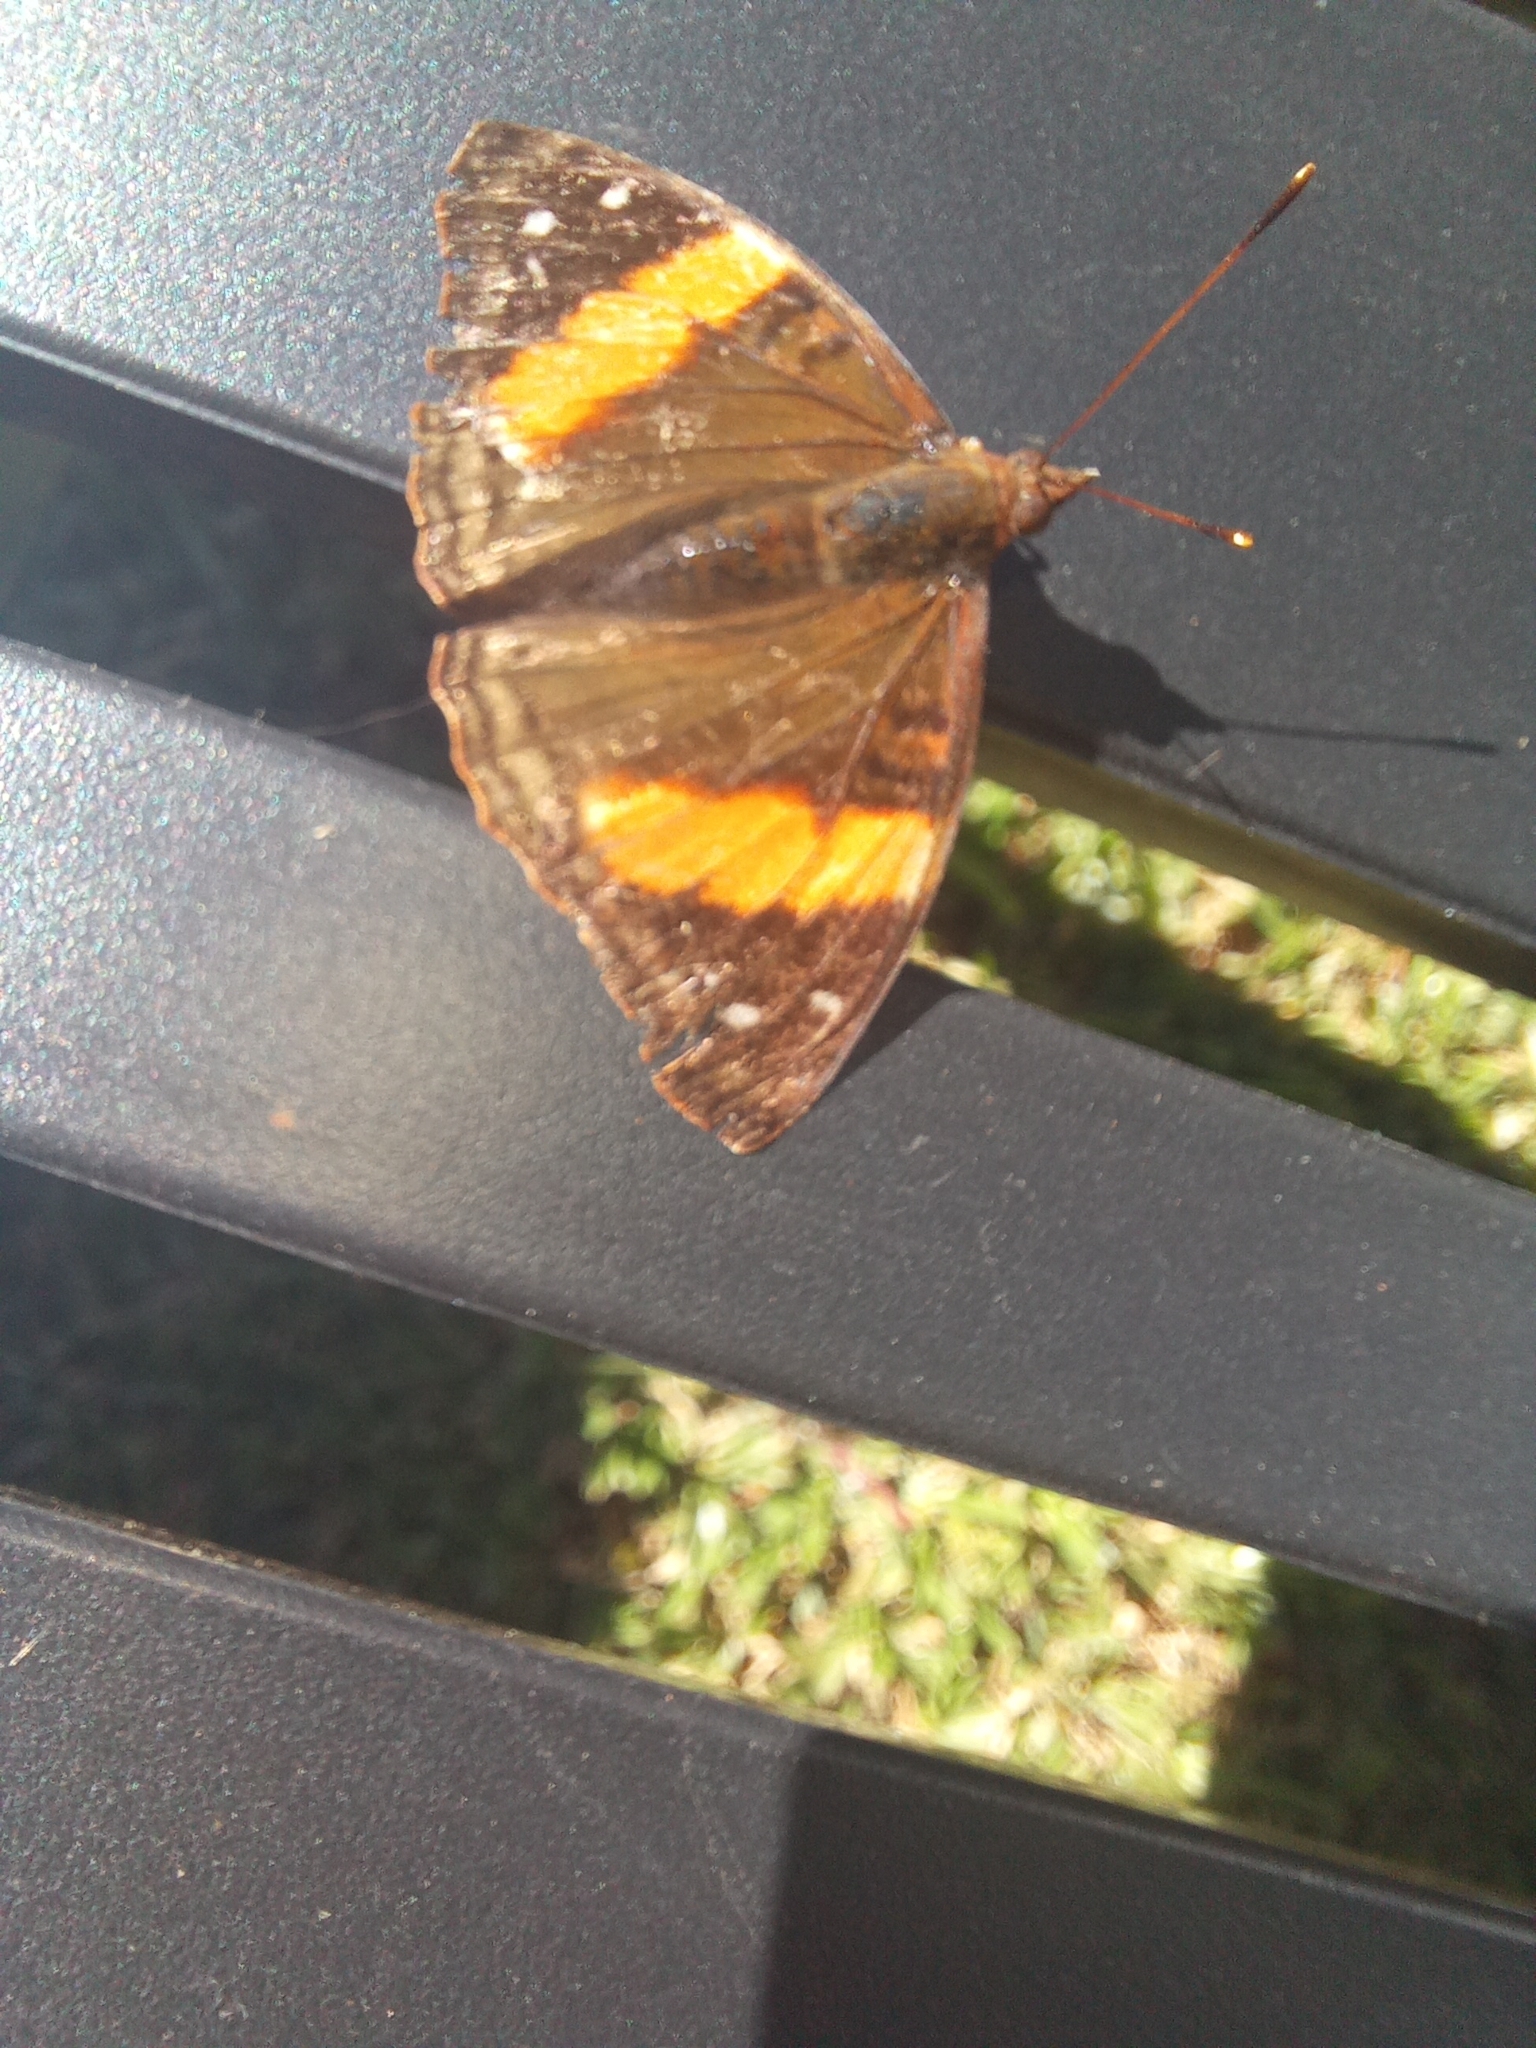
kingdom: Animalia
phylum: Arthropoda
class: Insecta
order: Lepidoptera
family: Nymphalidae
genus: Doxocopa
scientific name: Doxocopa agathina
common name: Agathina emperor
